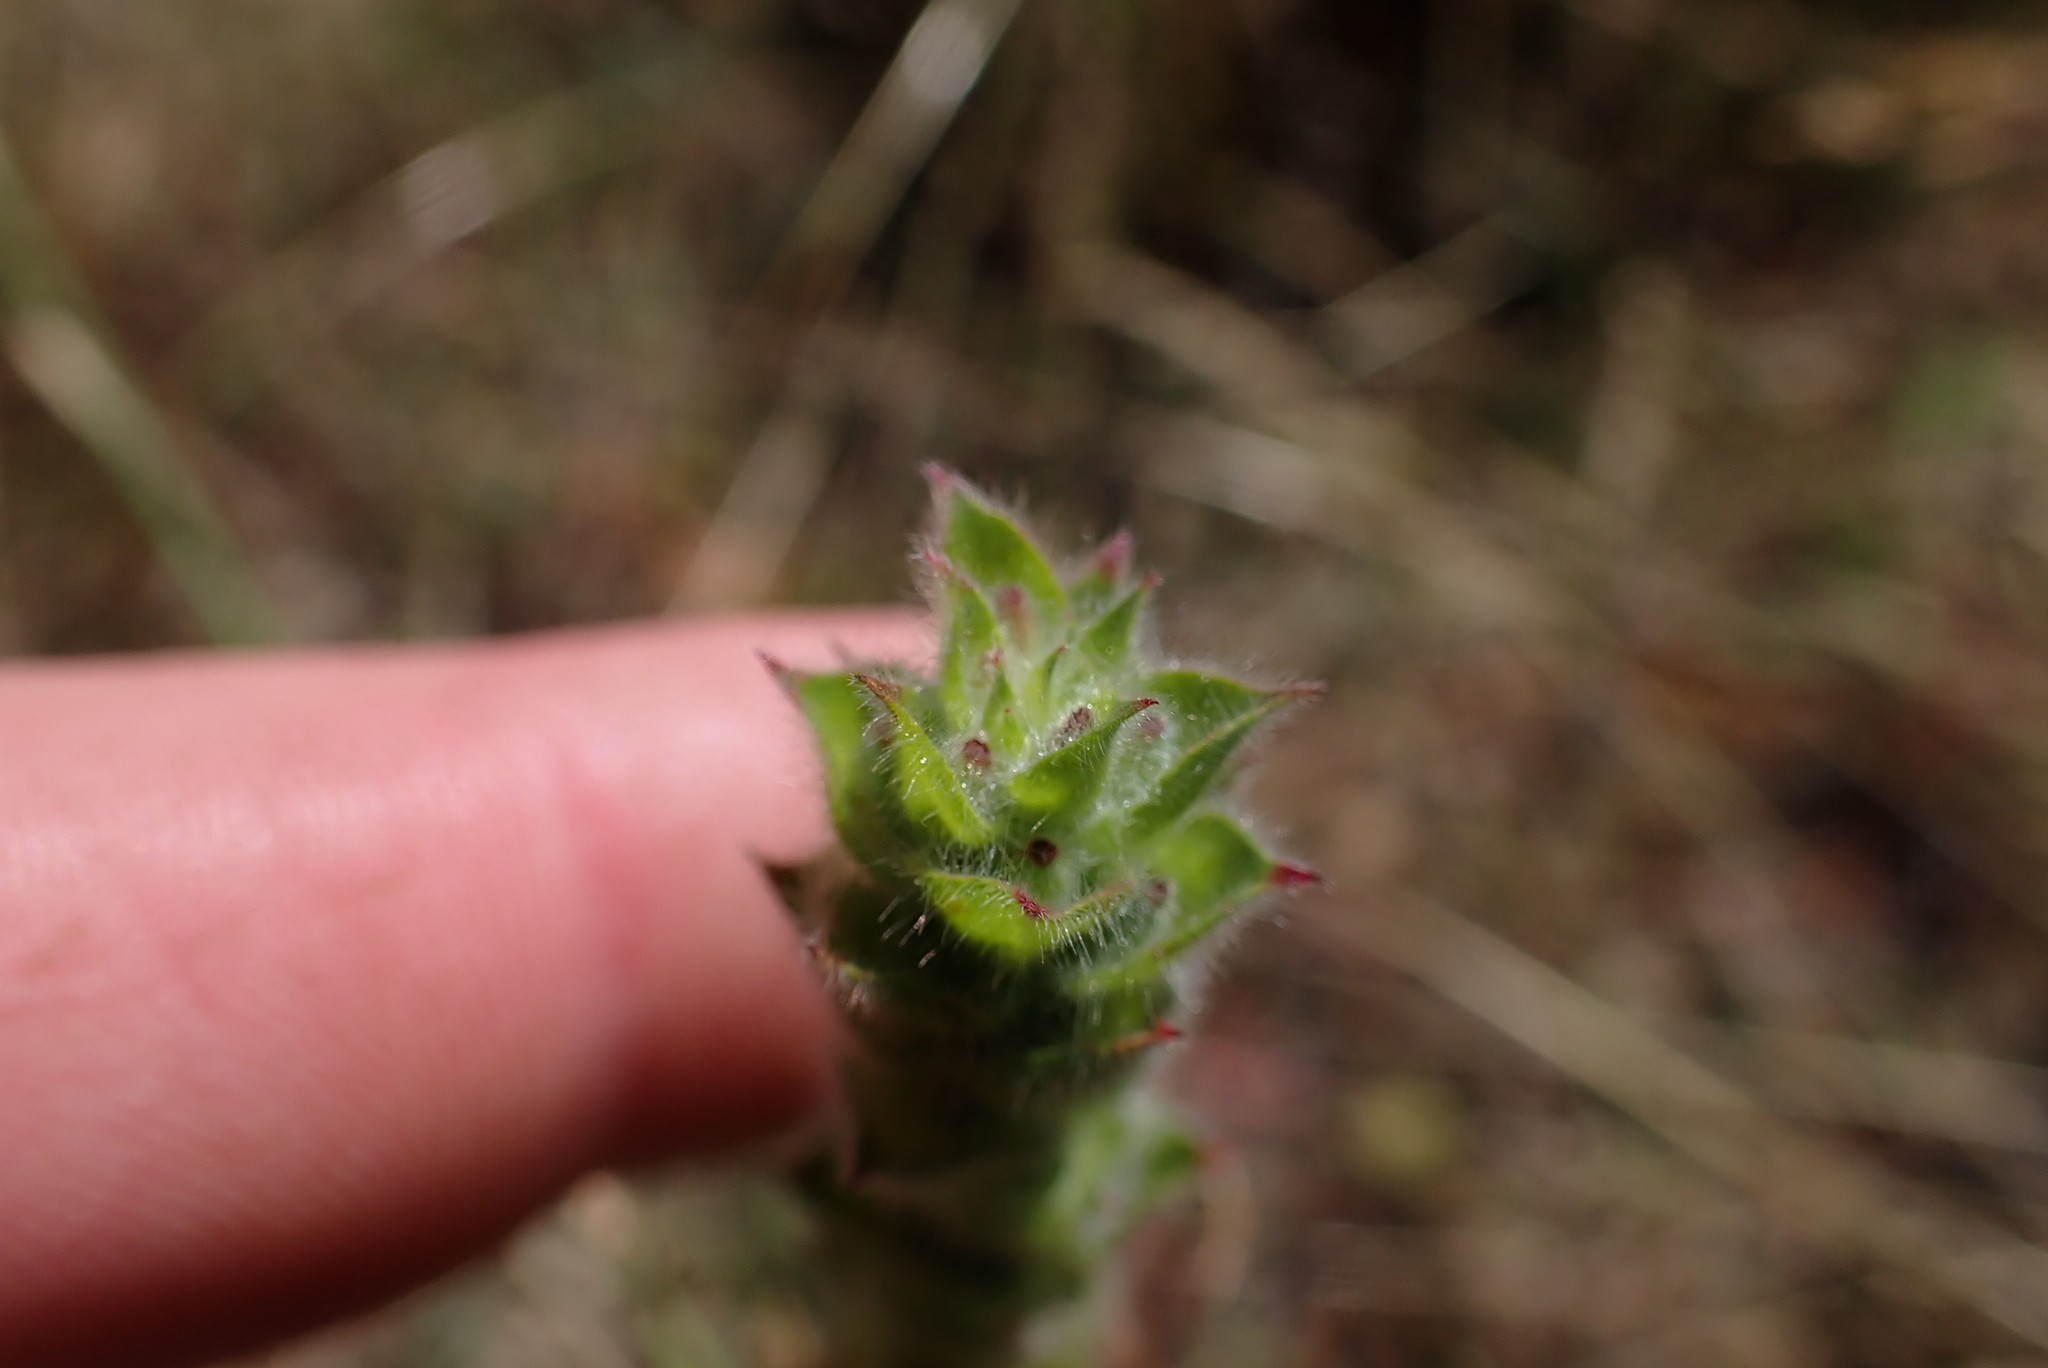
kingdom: Plantae
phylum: Tracheophyta
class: Magnoliopsida
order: Myrtales
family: Onagraceae
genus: Epilobium
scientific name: Epilobium densiflorum
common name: Dense spike-primrose
